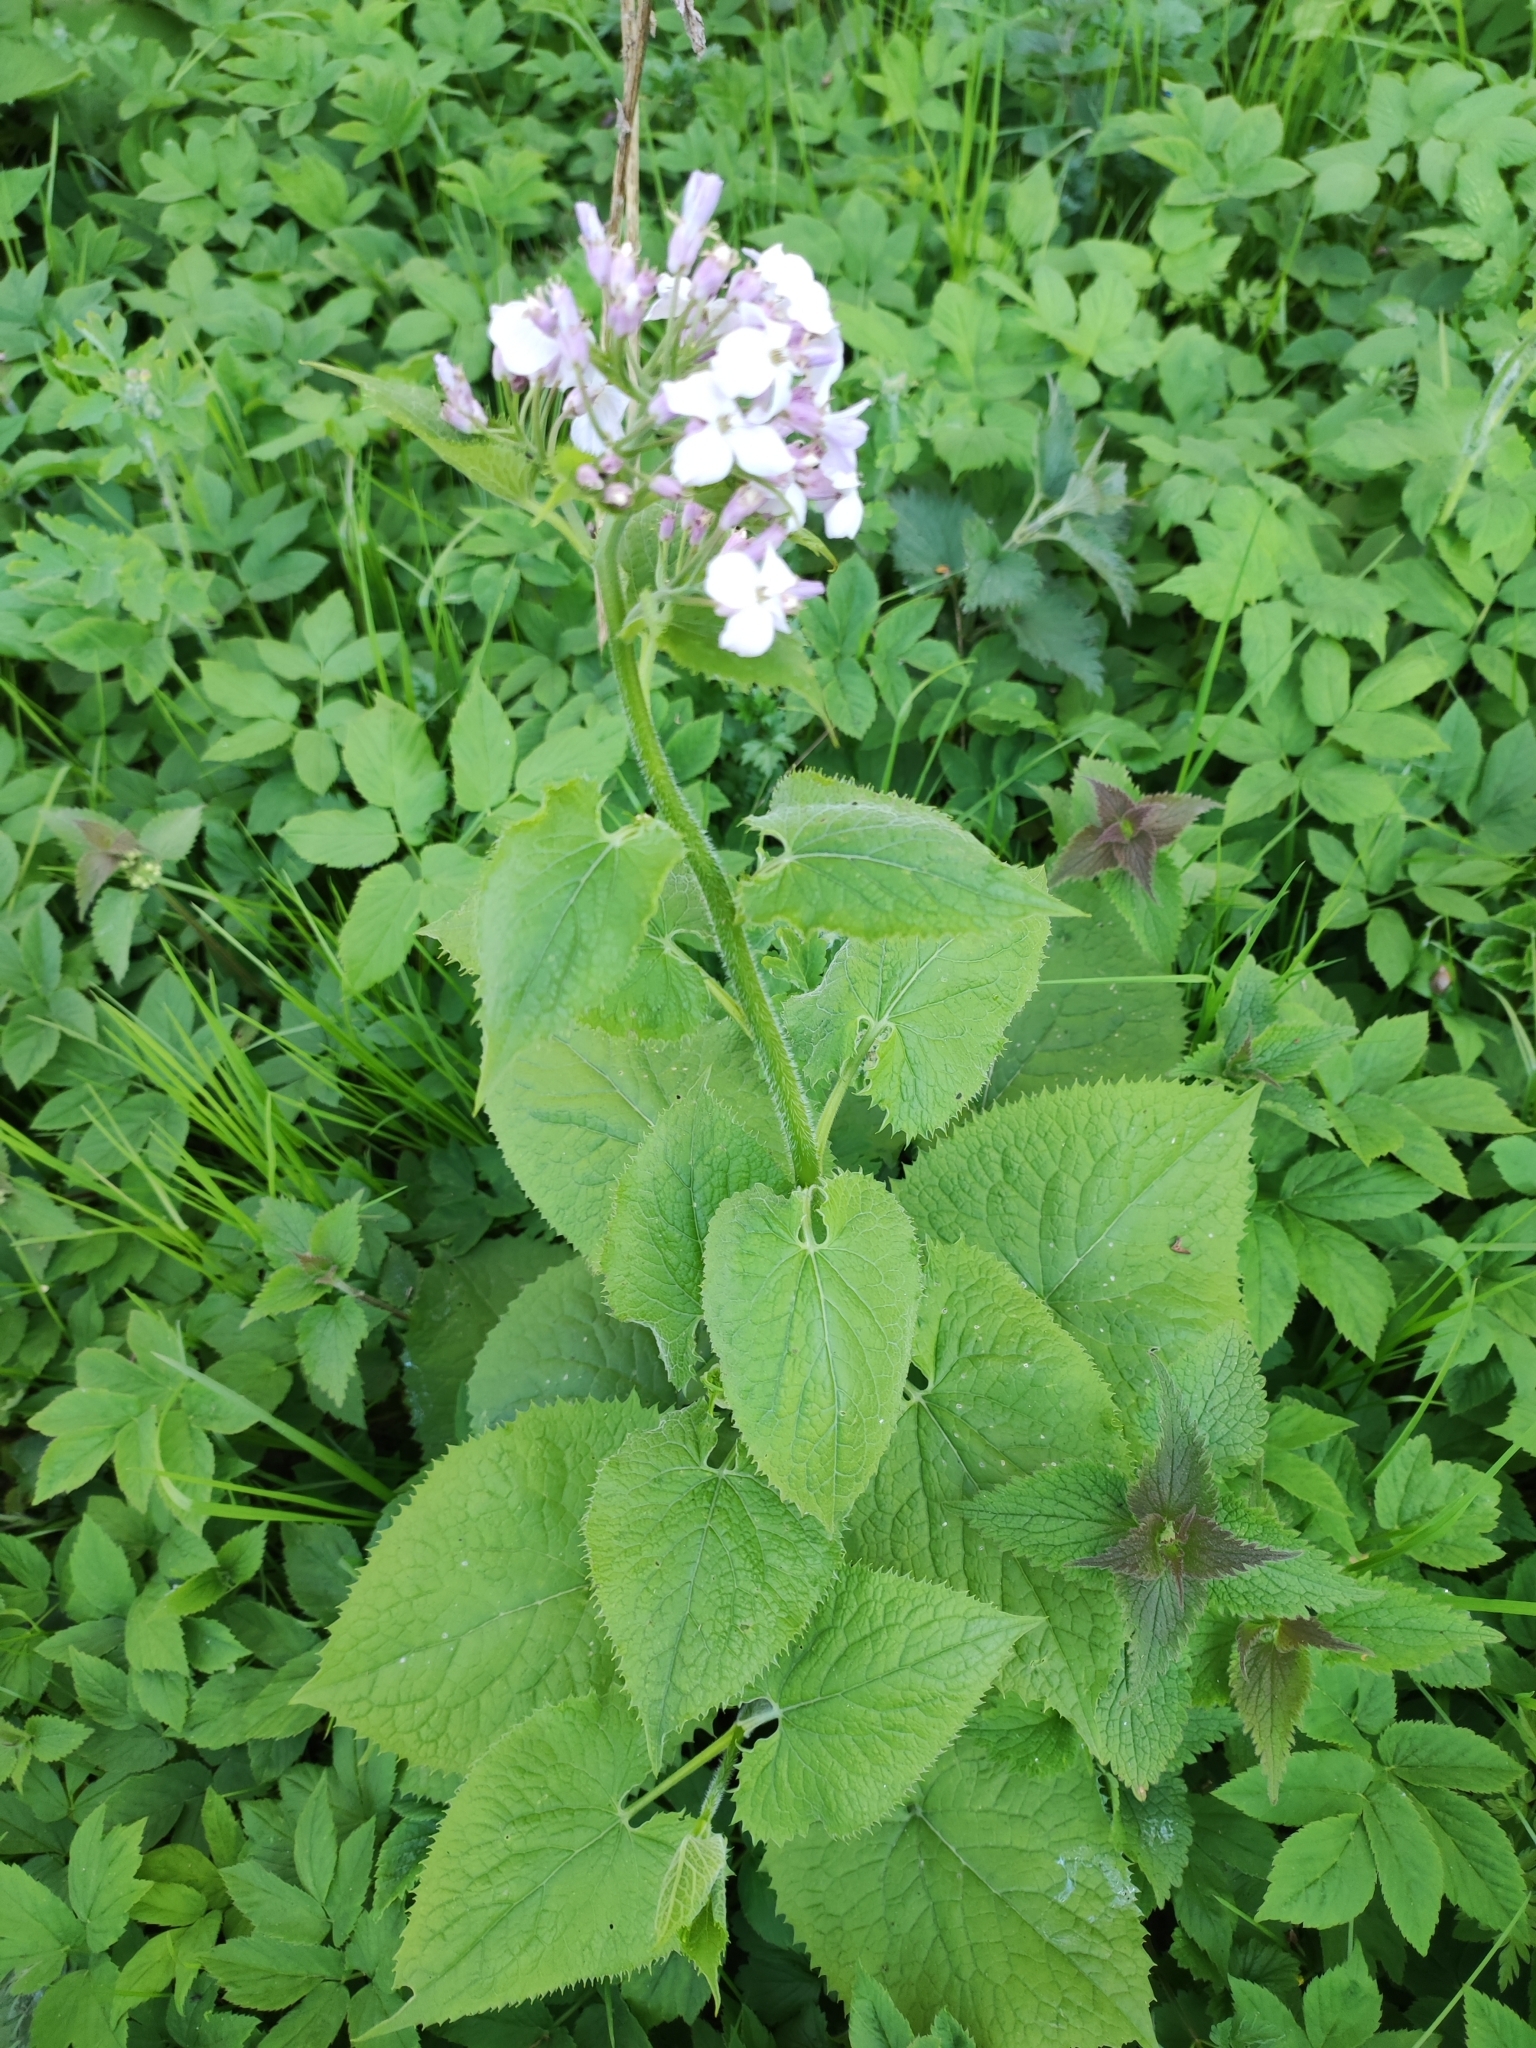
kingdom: Plantae
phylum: Tracheophyta
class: Magnoliopsida
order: Brassicales
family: Brassicaceae
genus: Lunaria
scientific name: Lunaria rediviva
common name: Perennial honesty
